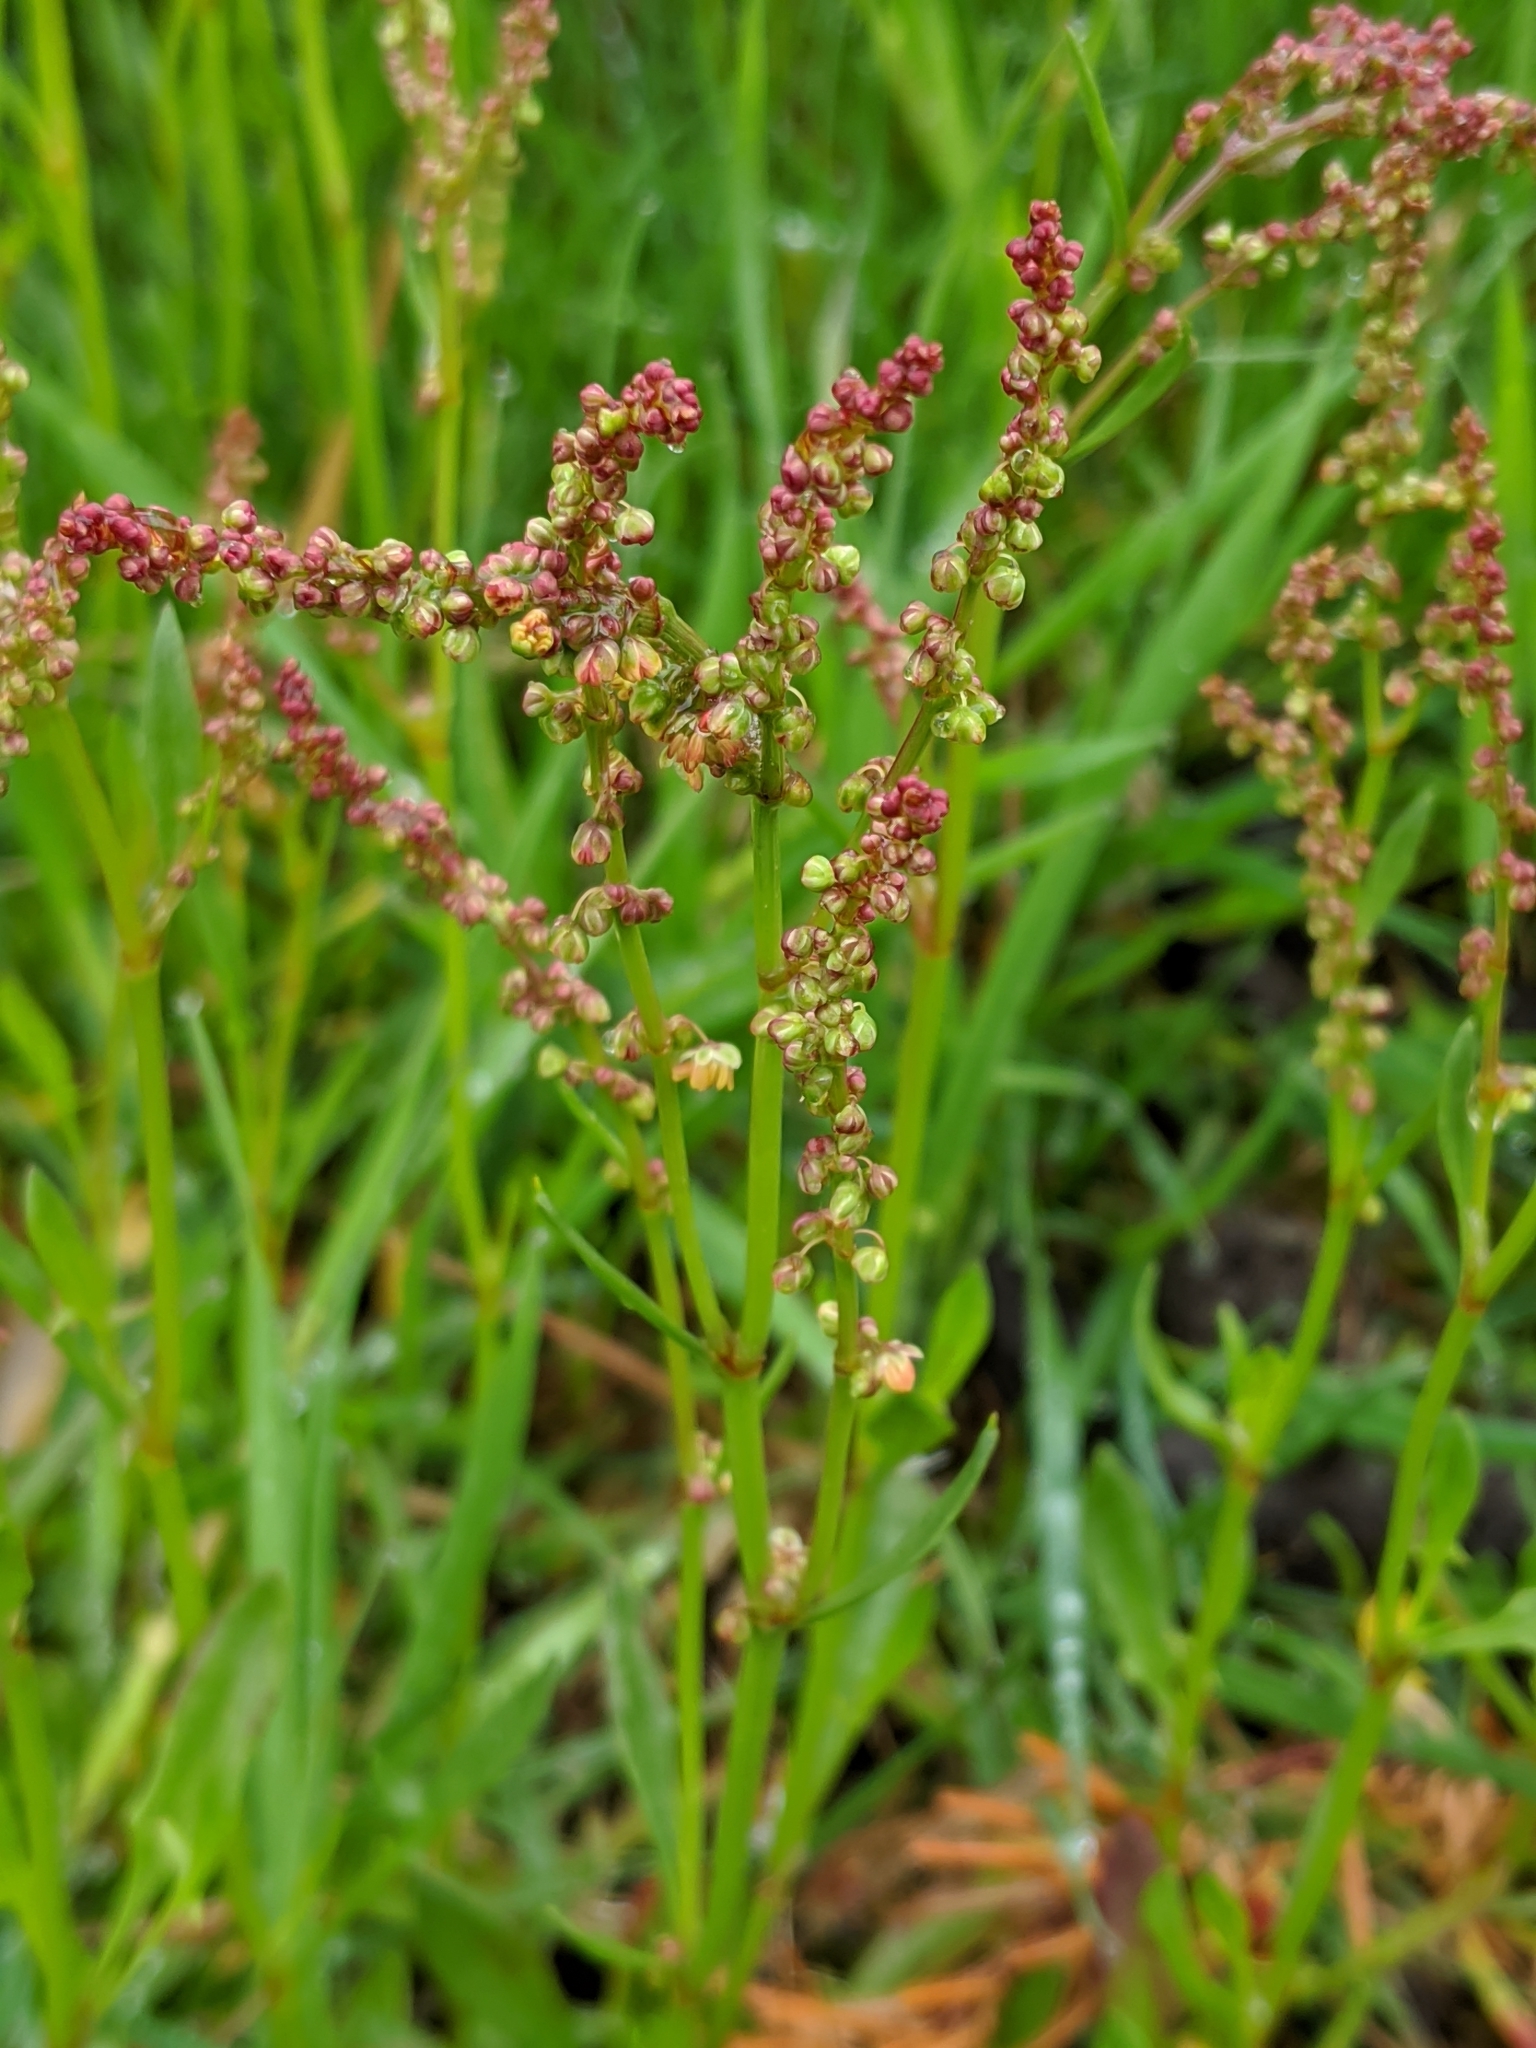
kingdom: Plantae
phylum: Tracheophyta
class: Magnoliopsida
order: Caryophyllales
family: Polygonaceae
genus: Rumex
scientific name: Rumex acetosella
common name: Common sheep sorrel
